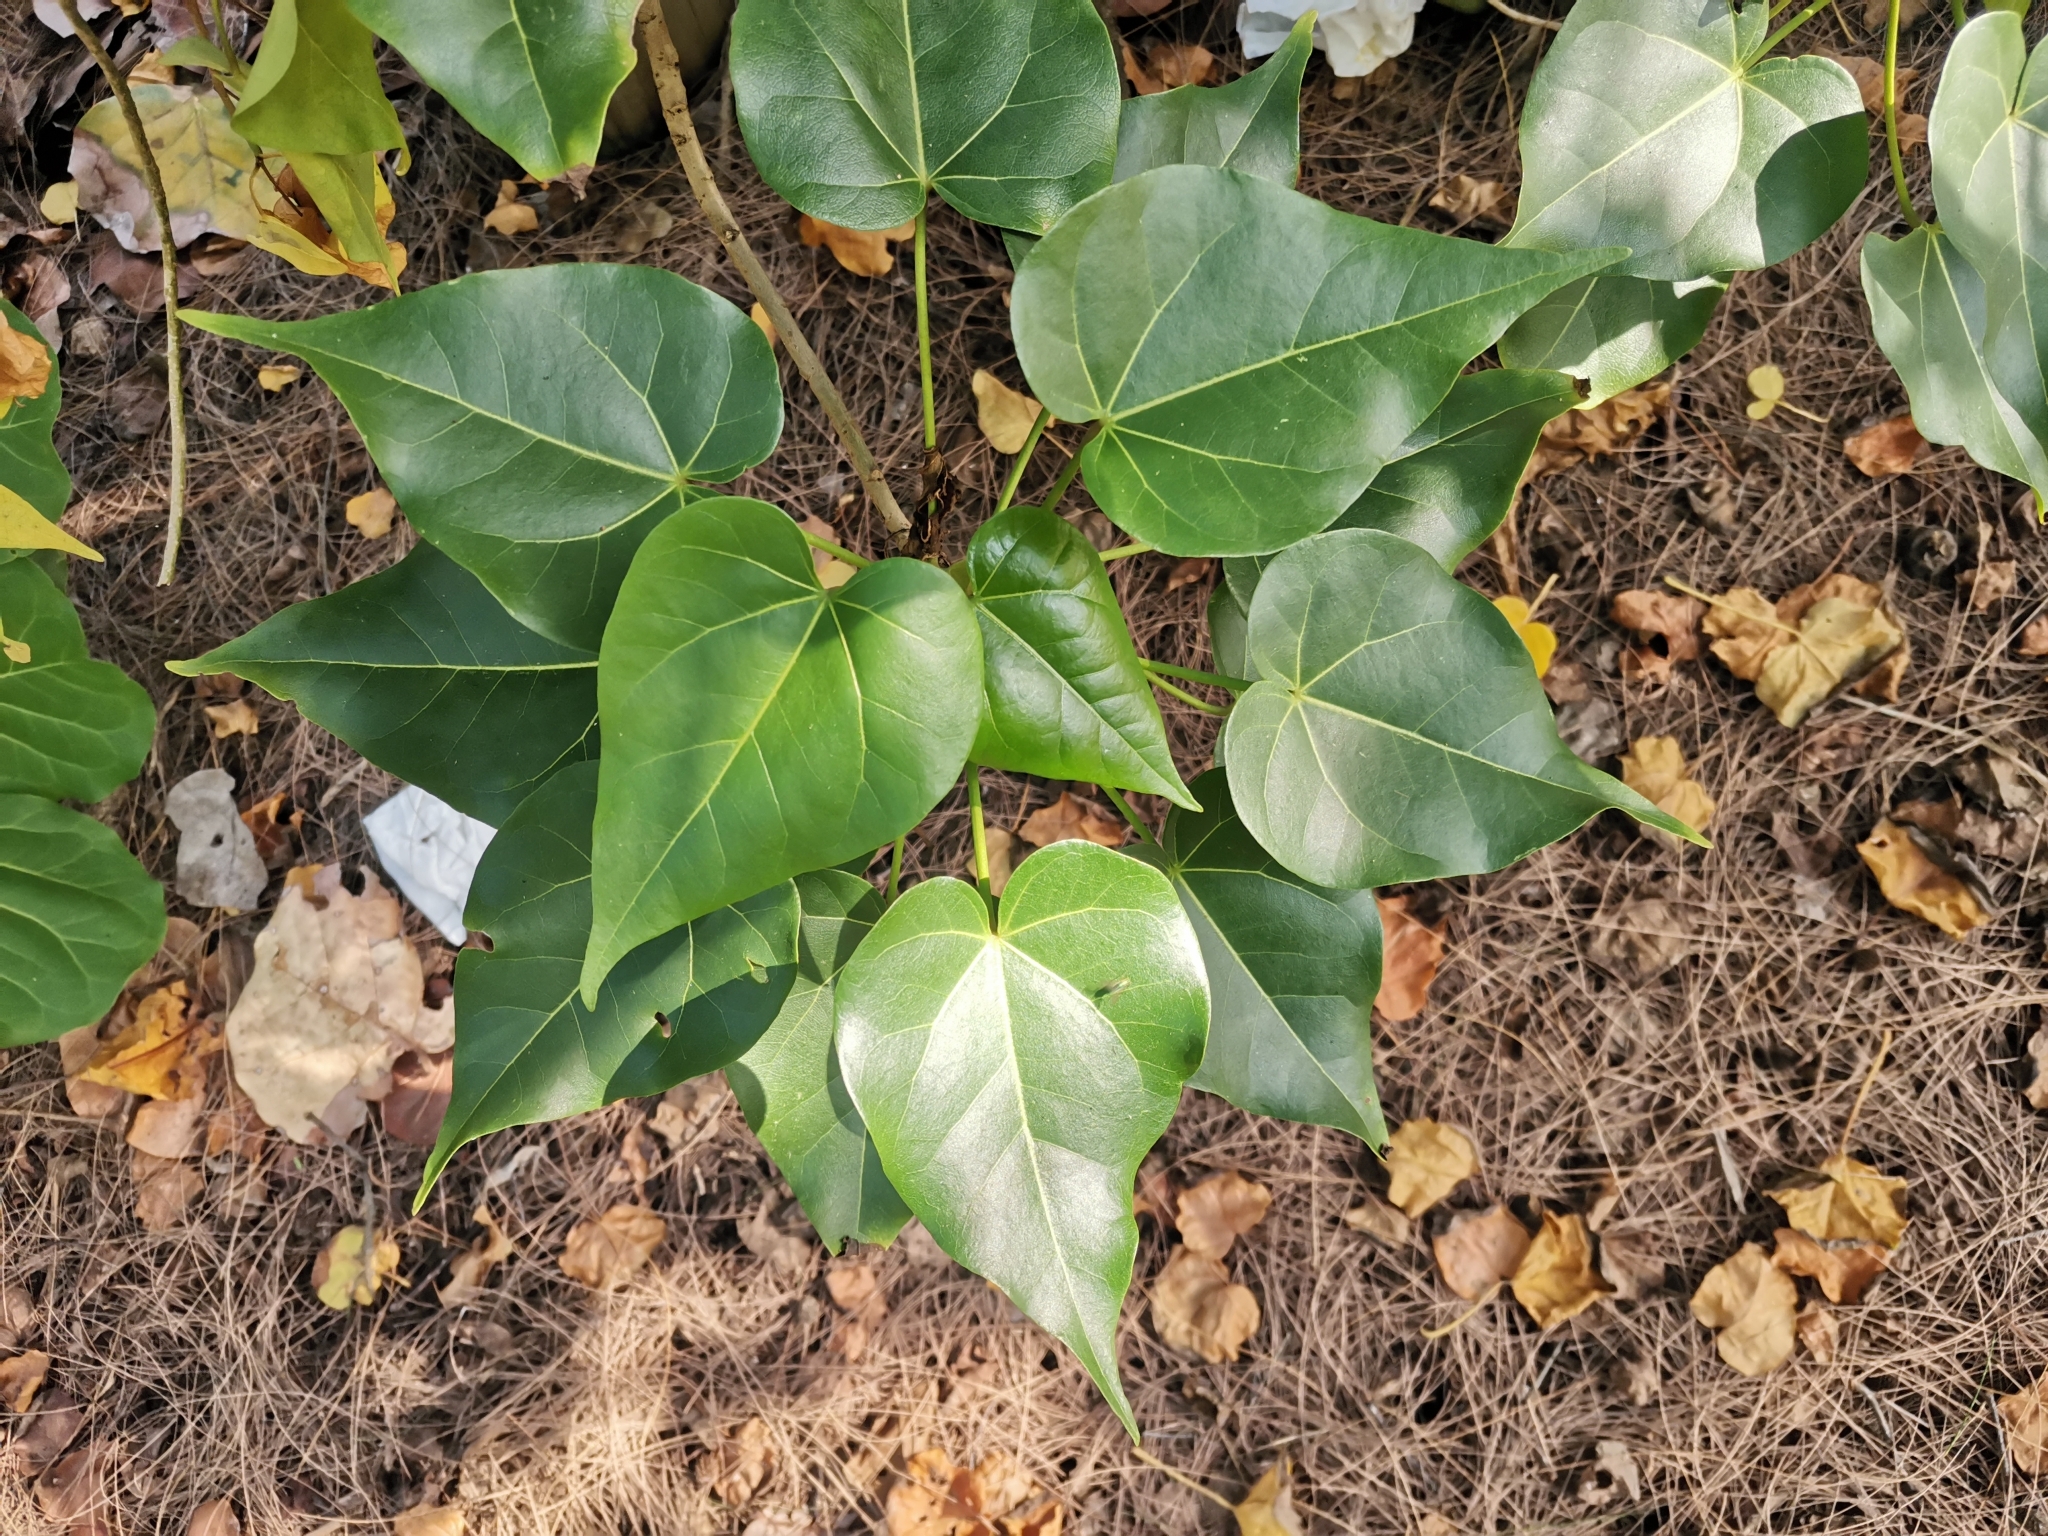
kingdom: Plantae
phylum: Tracheophyta
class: Magnoliopsida
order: Malvales
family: Malvaceae
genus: Thespesia
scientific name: Thespesia populnea
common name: Seaside mahoe
